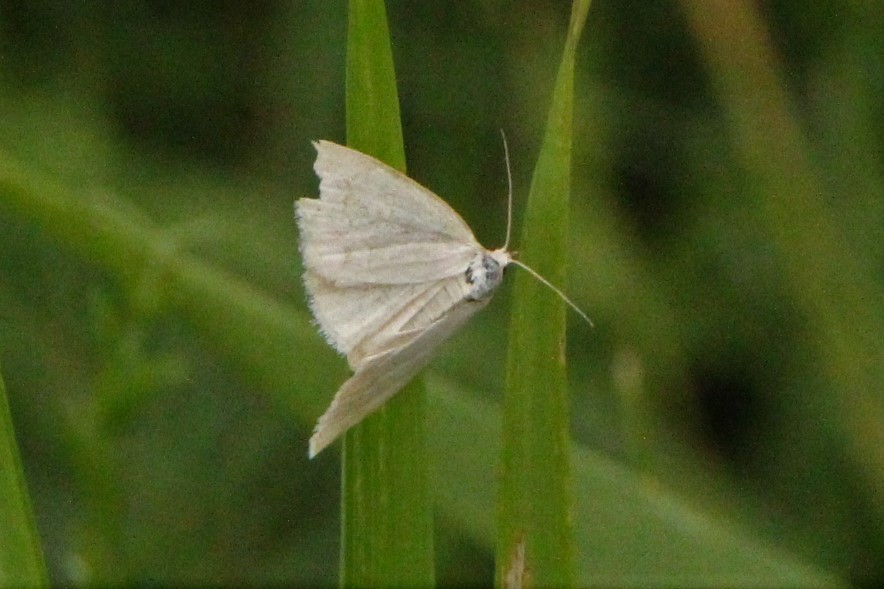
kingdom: Animalia
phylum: Arthropoda
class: Insecta
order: Lepidoptera
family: Noctuidae
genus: Protodeltote
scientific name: Protodeltote albidula
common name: Pale glyph
